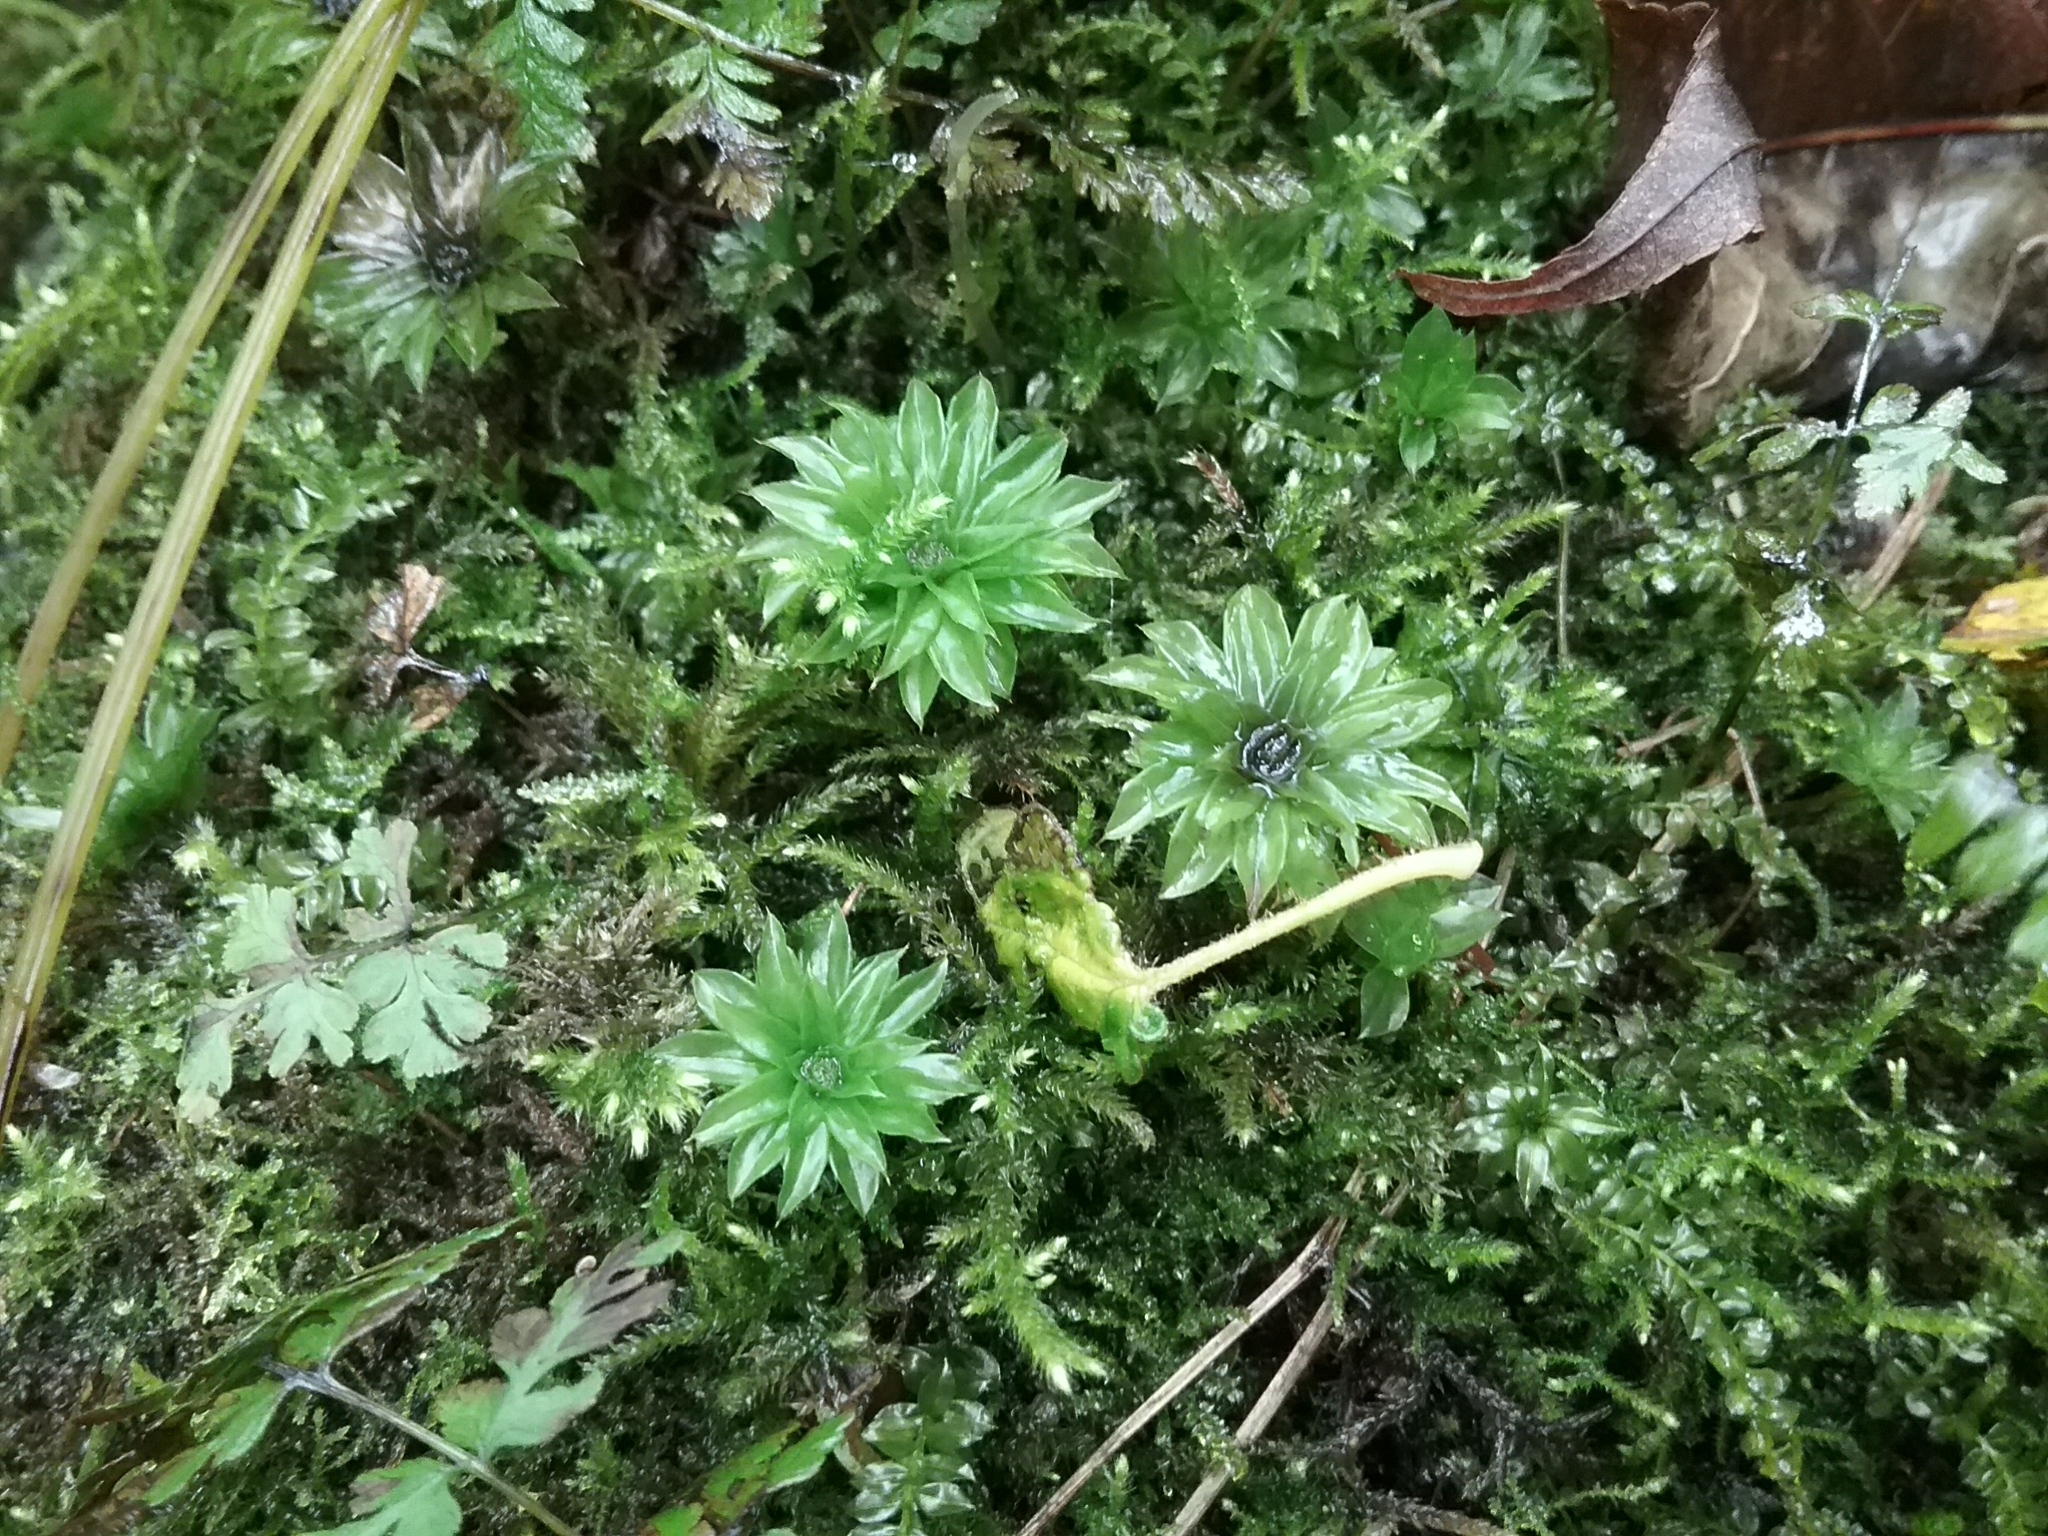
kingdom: Plantae
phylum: Bryophyta
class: Bryopsida
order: Bryales
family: Bryaceae
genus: Rhodobryum
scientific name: Rhodobryum ontariense
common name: Ontario rhodobryum moss
